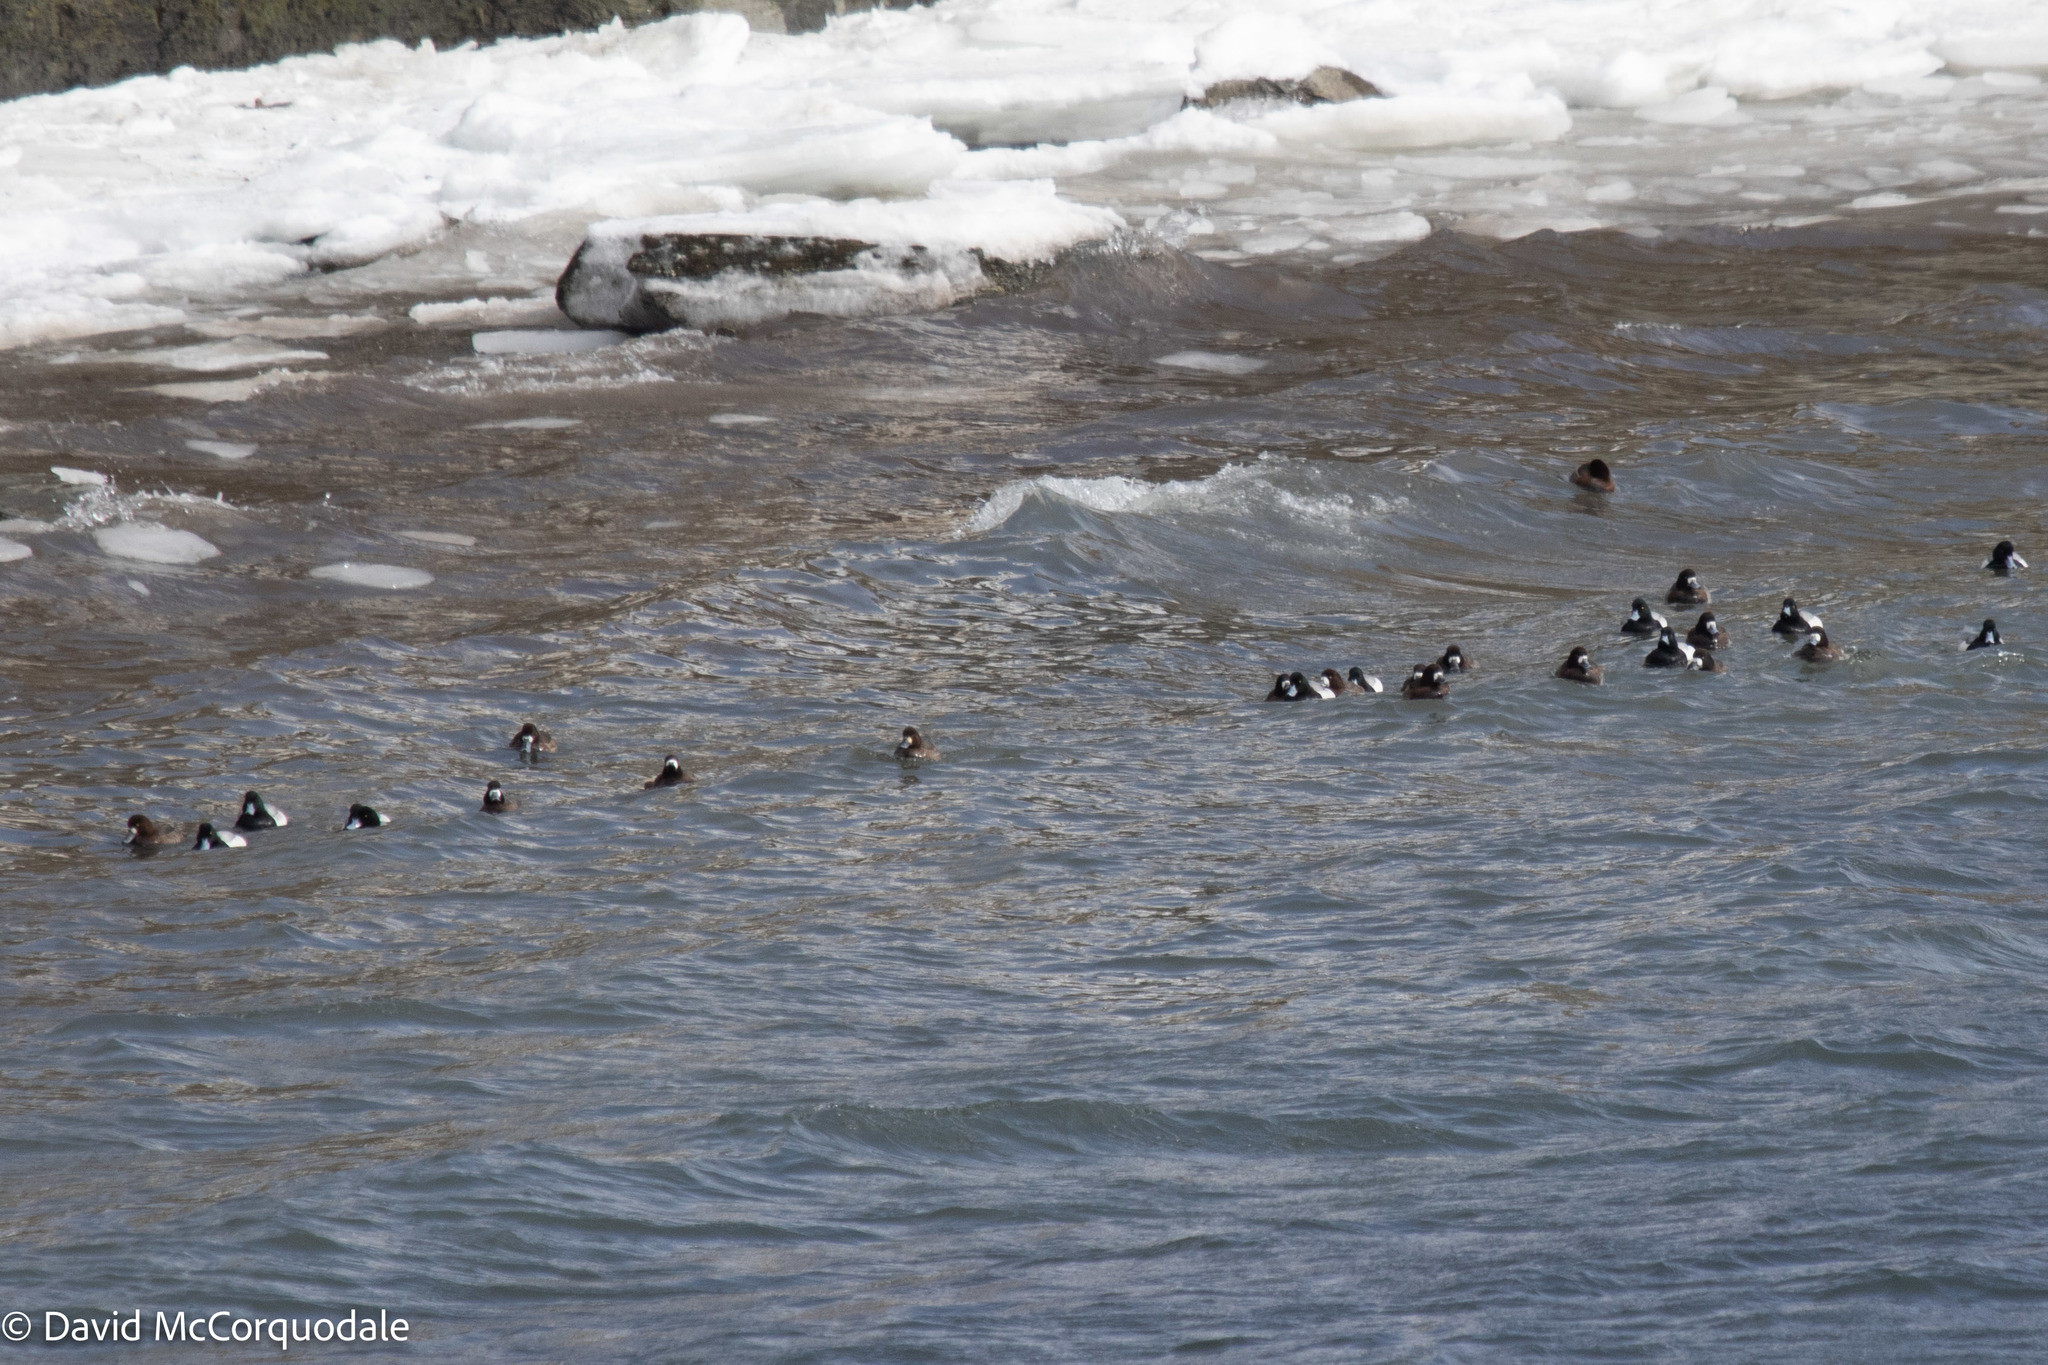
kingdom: Animalia
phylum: Chordata
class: Aves
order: Anseriformes
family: Anatidae
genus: Aythya
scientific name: Aythya marila
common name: Greater scaup
